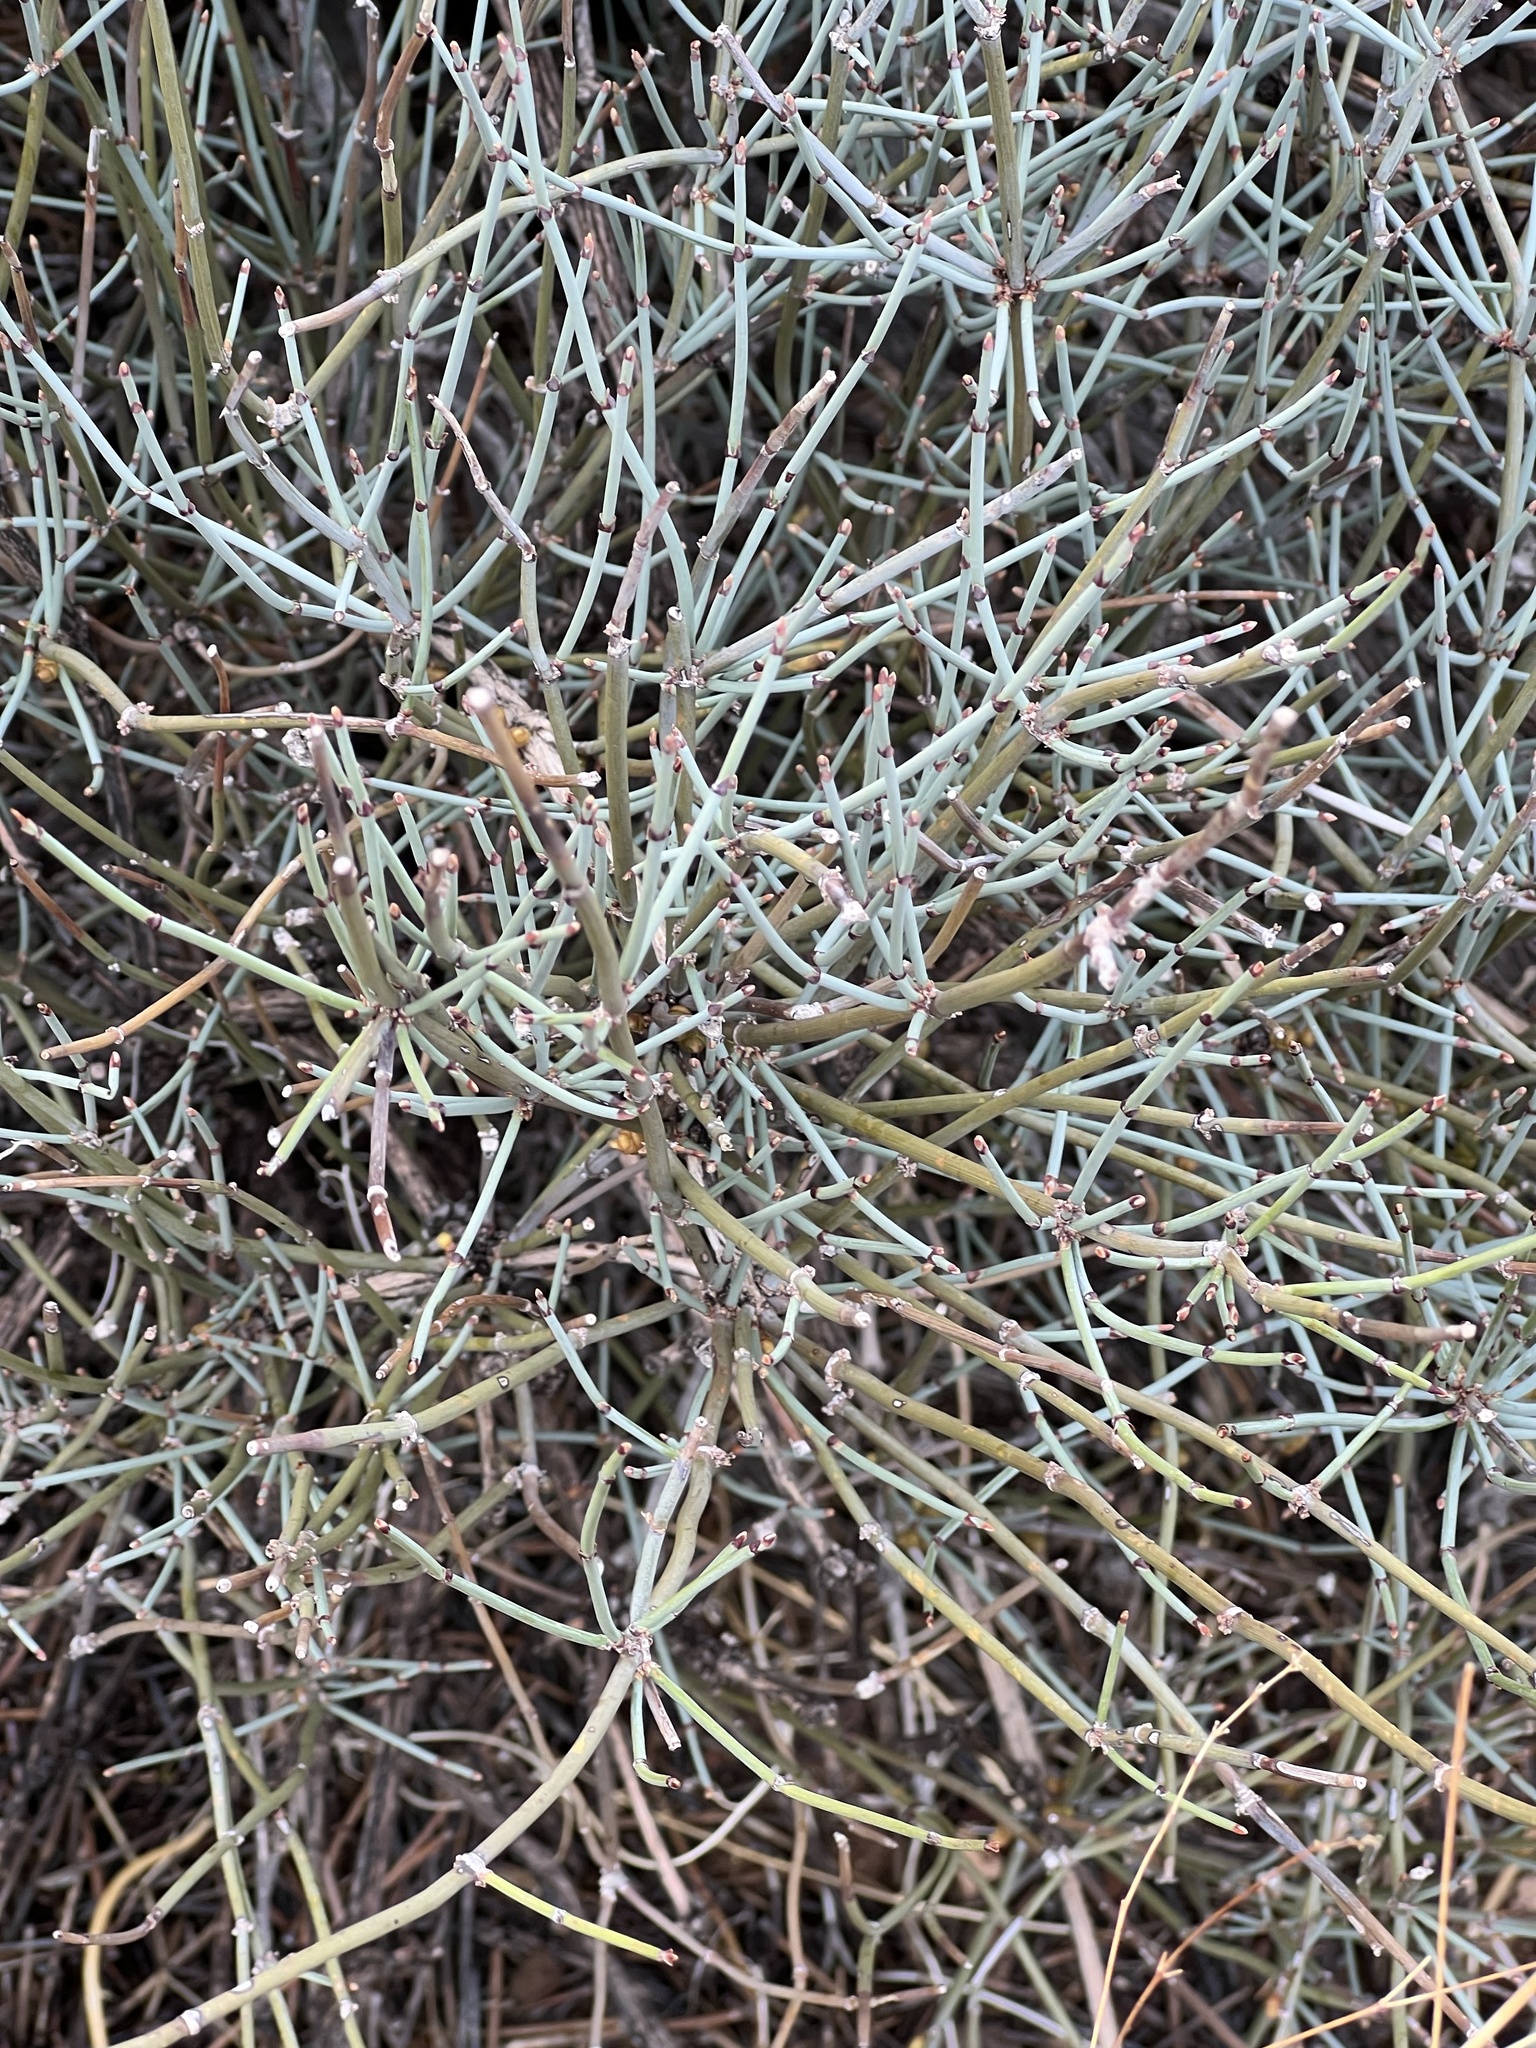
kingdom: Plantae
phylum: Tracheophyta
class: Gnetopsida
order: Ephedrales
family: Ephedraceae
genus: Ephedra
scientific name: Ephedra nevadensis
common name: Gray ephedra
